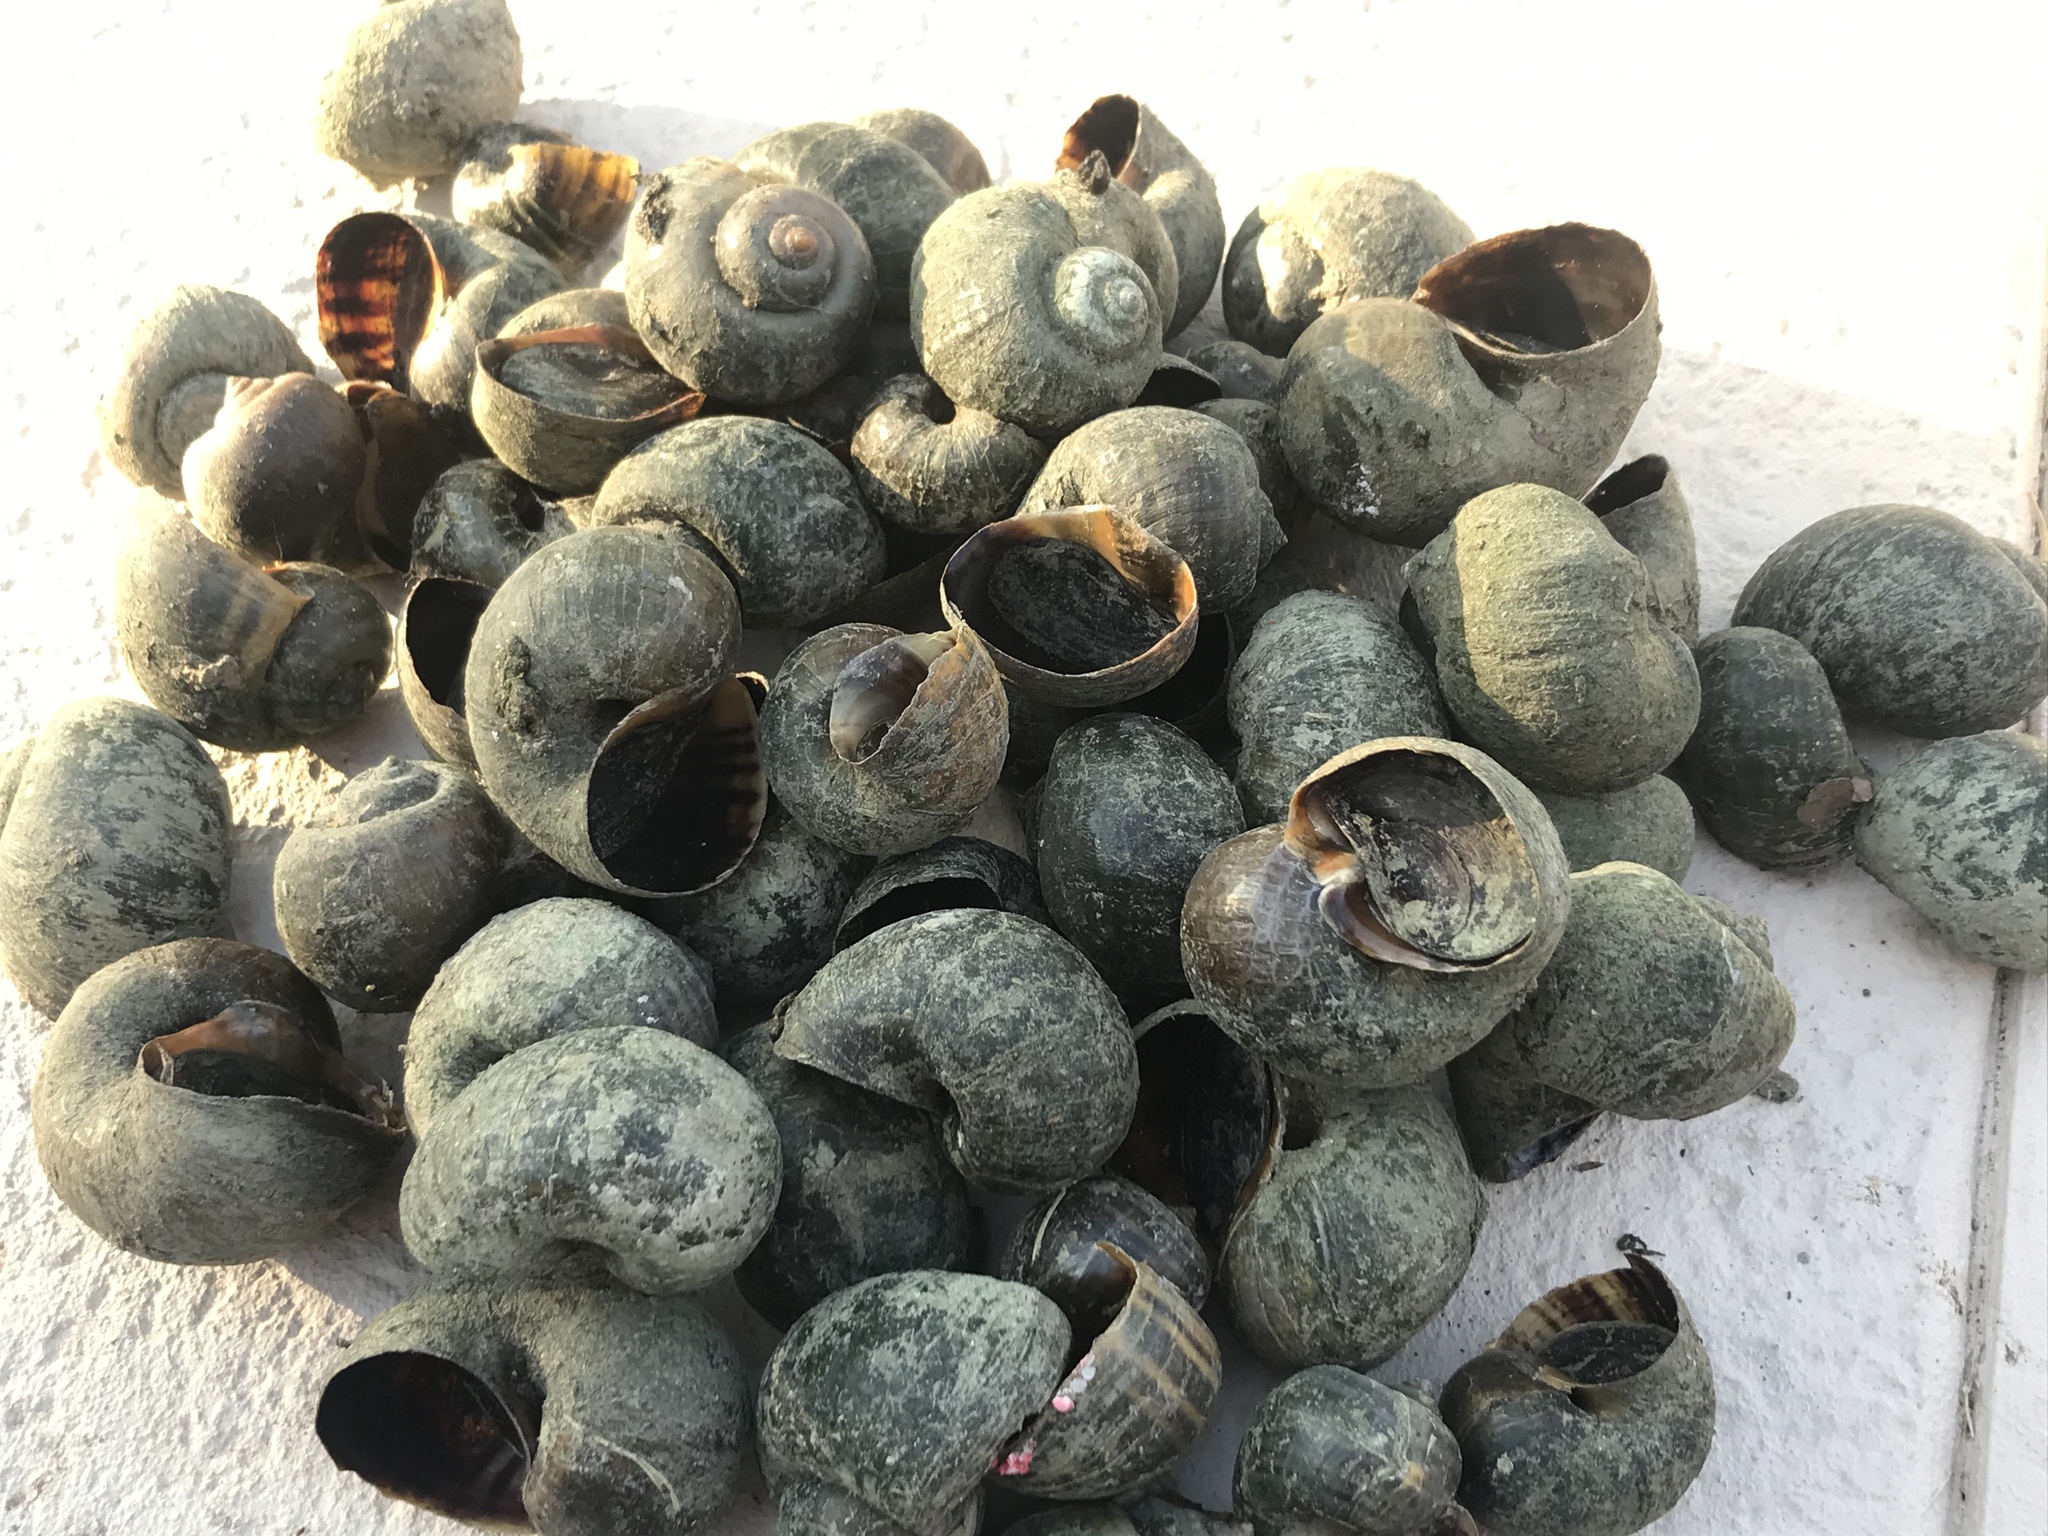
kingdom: Animalia
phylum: Mollusca
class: Gastropoda
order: Architaenioglossa
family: Ampullariidae
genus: Pomacea
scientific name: Pomacea canaliculata
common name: Channeled applesnail
